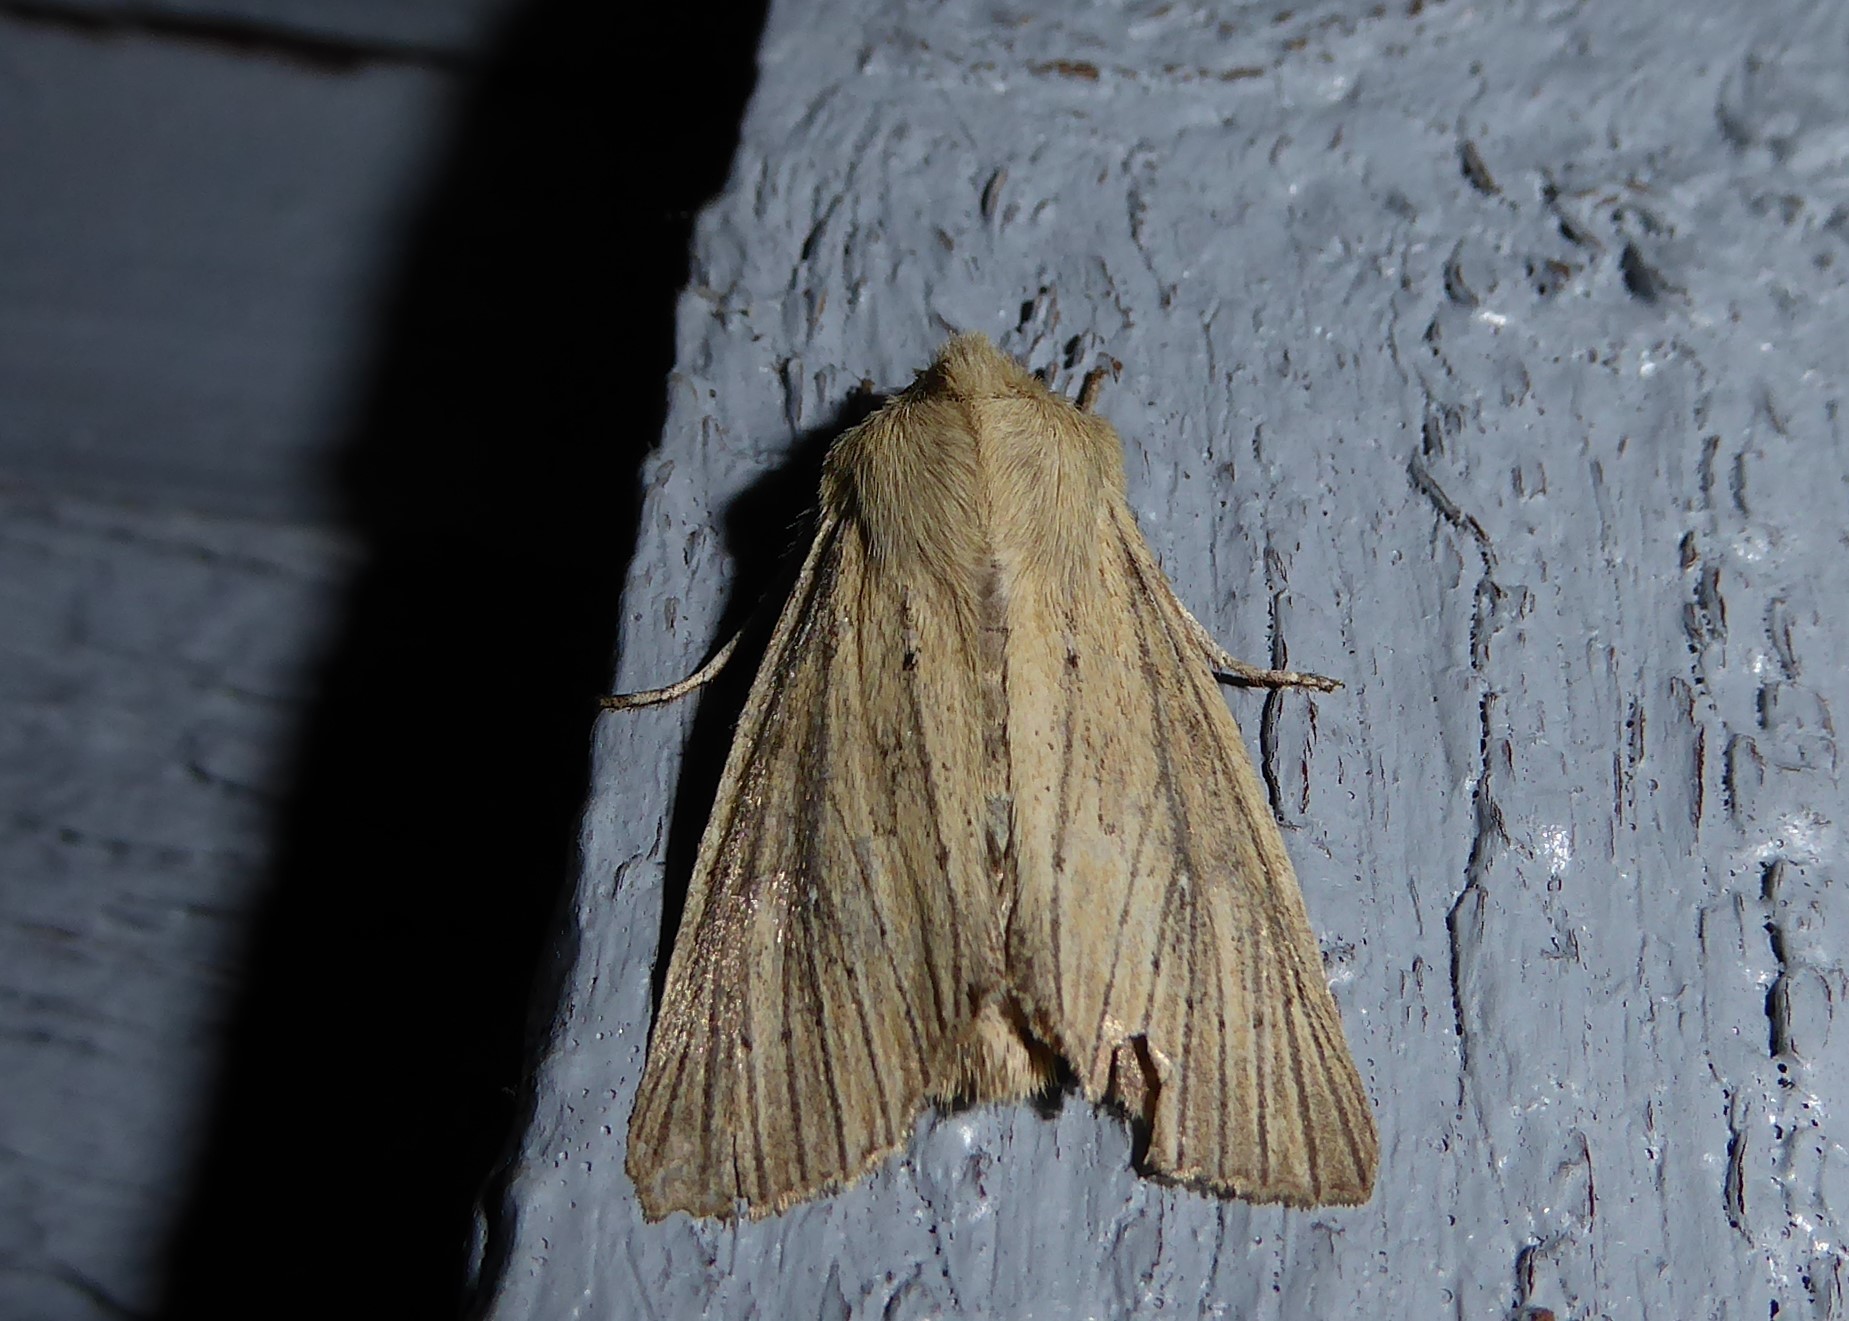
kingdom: Animalia
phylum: Arthropoda
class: Insecta
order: Lepidoptera
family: Noctuidae
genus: Ichneutica
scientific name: Ichneutica arotis
